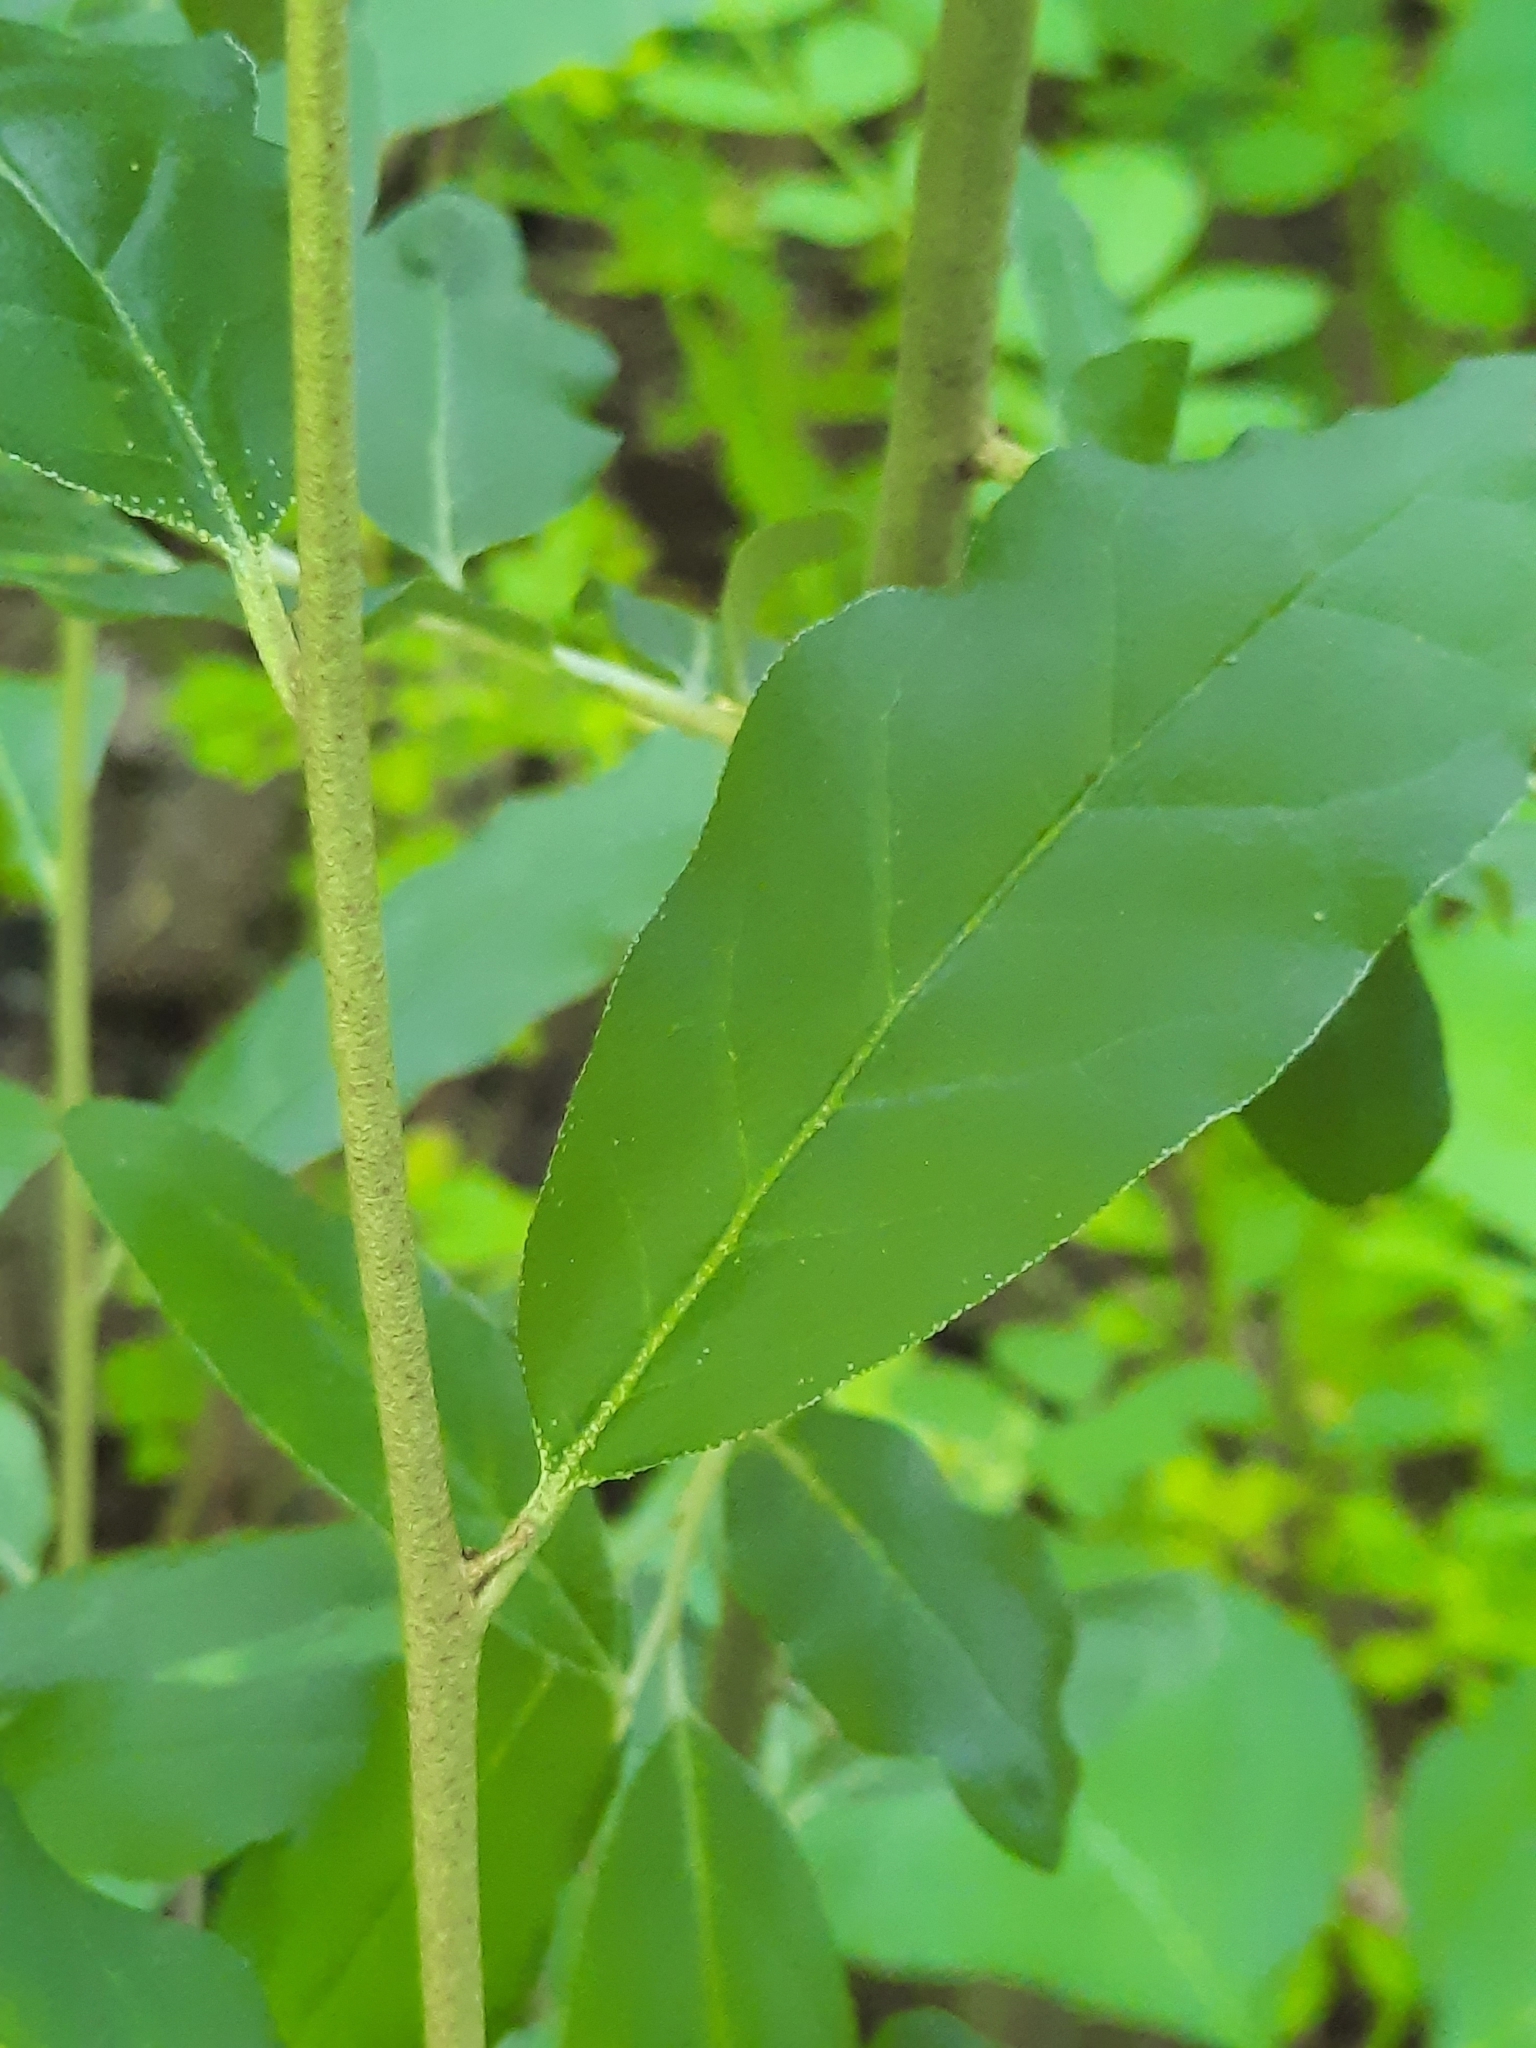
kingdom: Plantae
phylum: Tracheophyta
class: Magnoliopsida
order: Rosales
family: Elaeagnaceae
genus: Elaeagnus
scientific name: Elaeagnus umbellata
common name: Autumn olive
